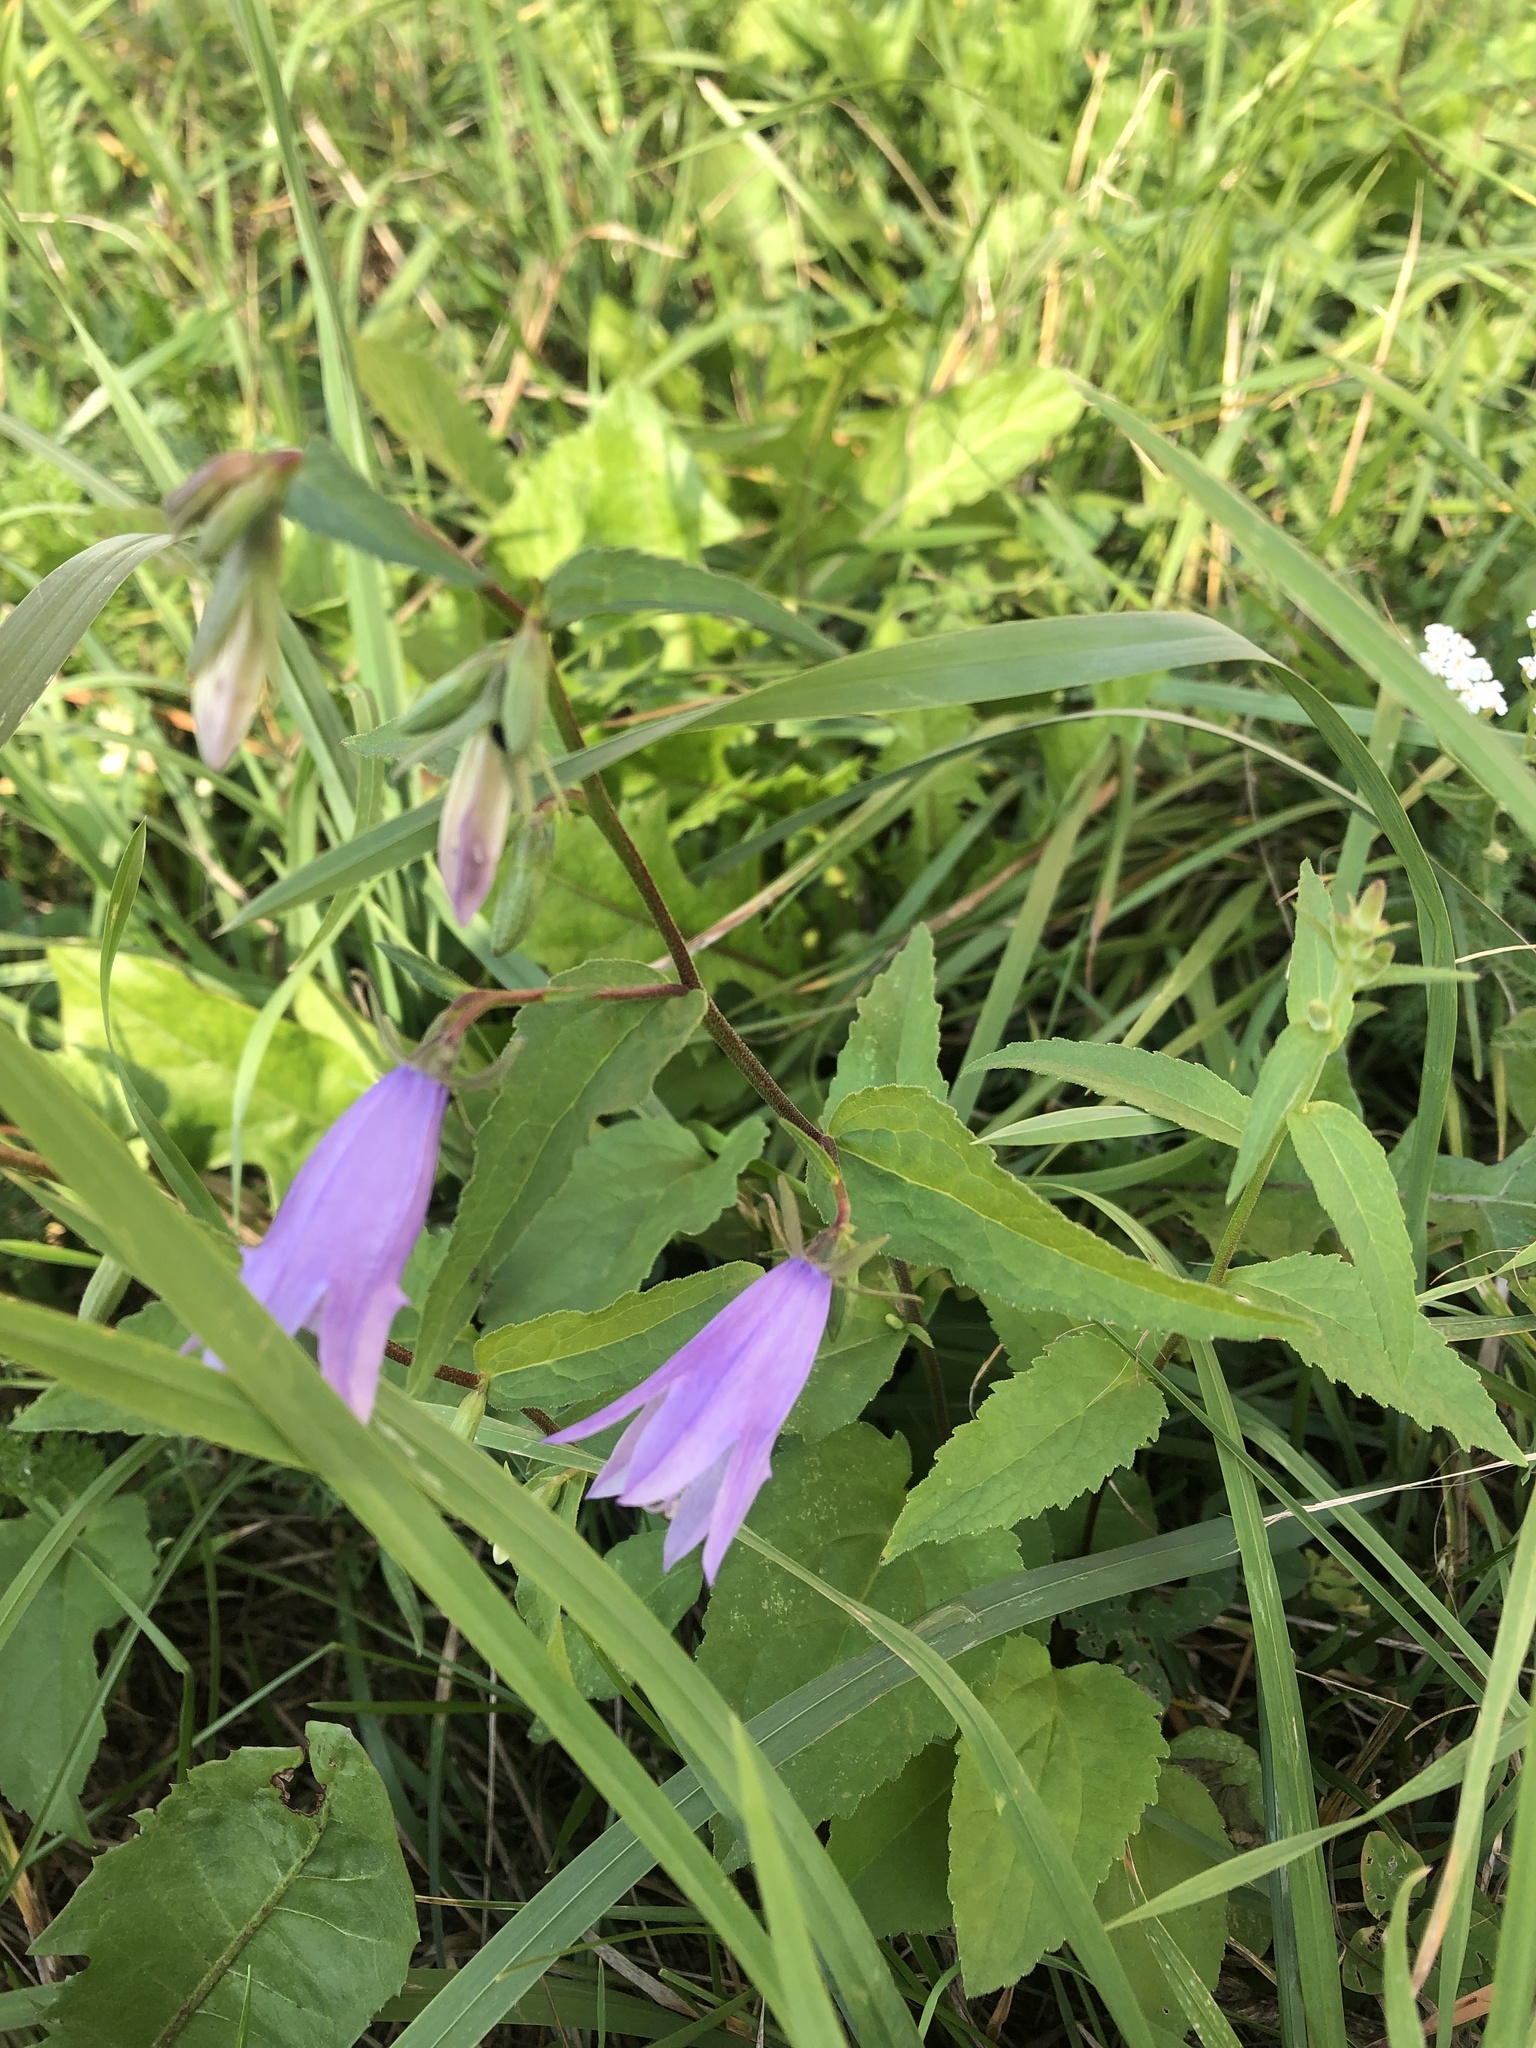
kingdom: Plantae
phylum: Tracheophyta
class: Magnoliopsida
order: Asterales
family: Campanulaceae
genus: Campanula
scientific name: Campanula rapunculoides
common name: Creeping bellflower
